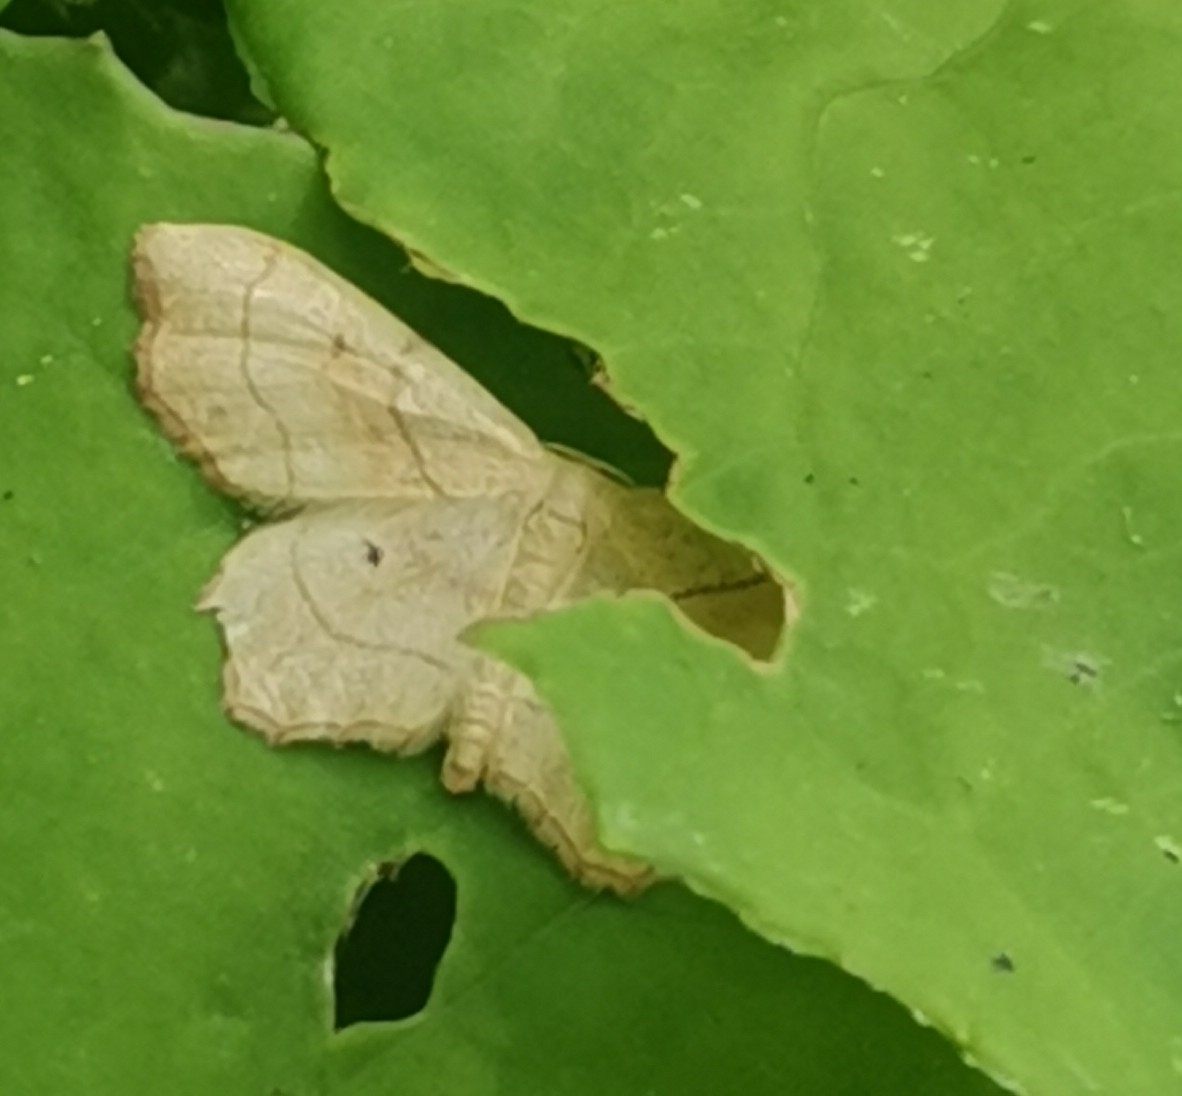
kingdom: Animalia
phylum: Arthropoda
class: Insecta
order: Lepidoptera
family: Geometridae
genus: Idaea
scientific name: Idaea emarginata
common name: Small scallop
